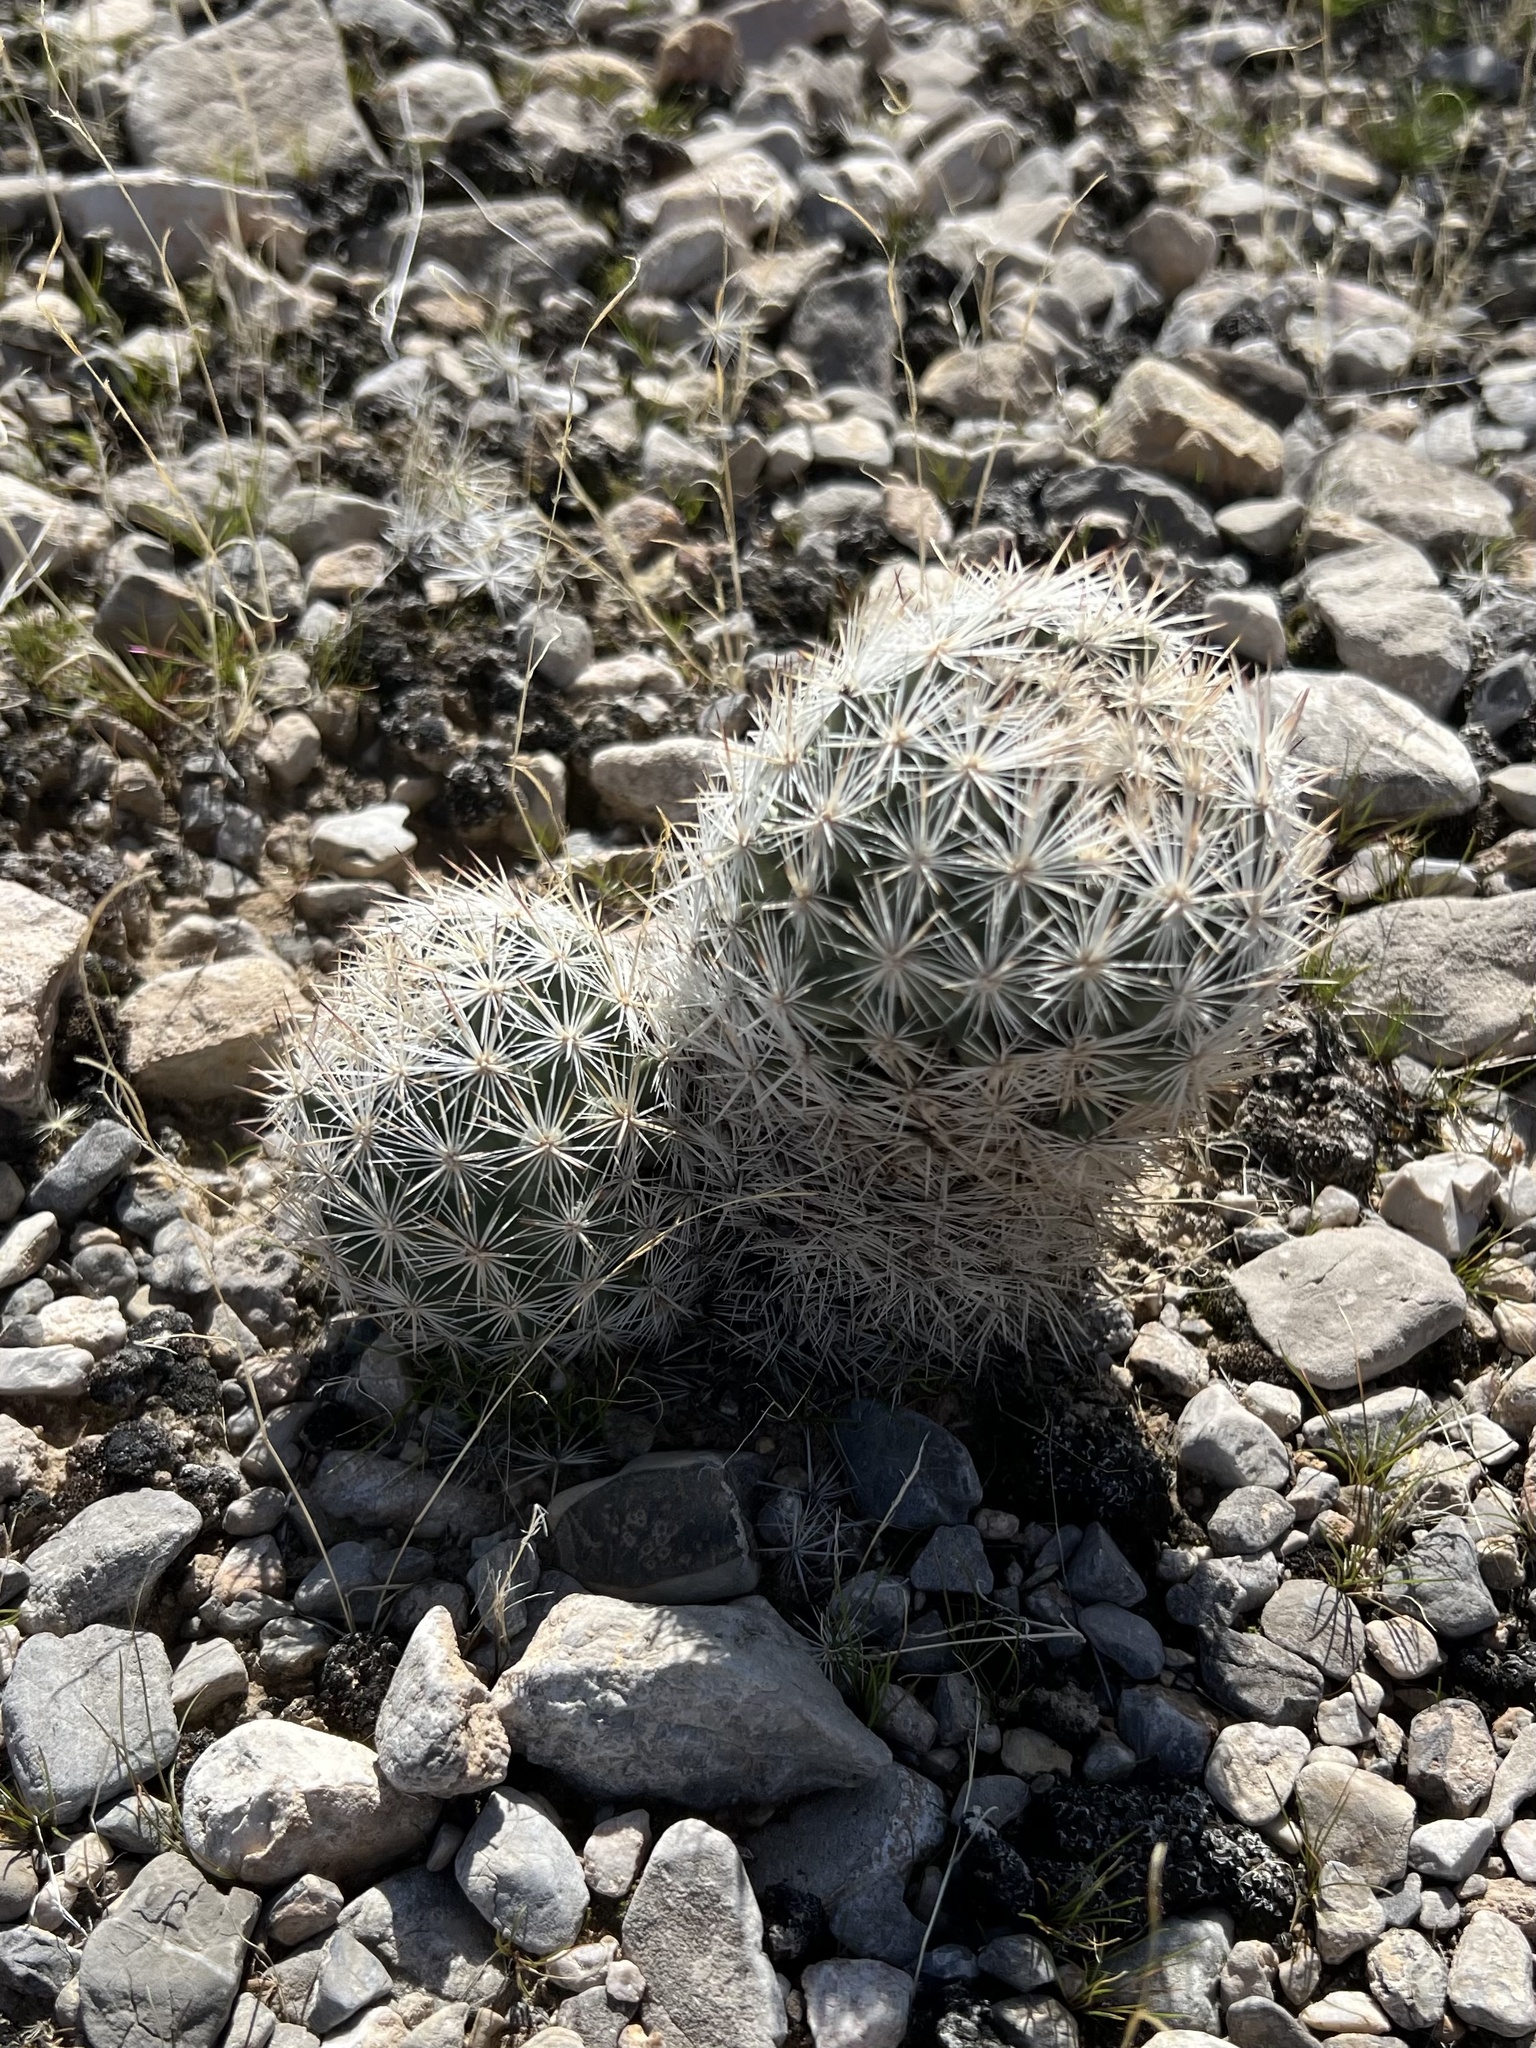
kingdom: Plantae
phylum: Tracheophyta
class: Magnoliopsida
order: Caryophyllales
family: Cactaceae
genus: Pelecyphora
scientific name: Pelecyphora dasyacantha
